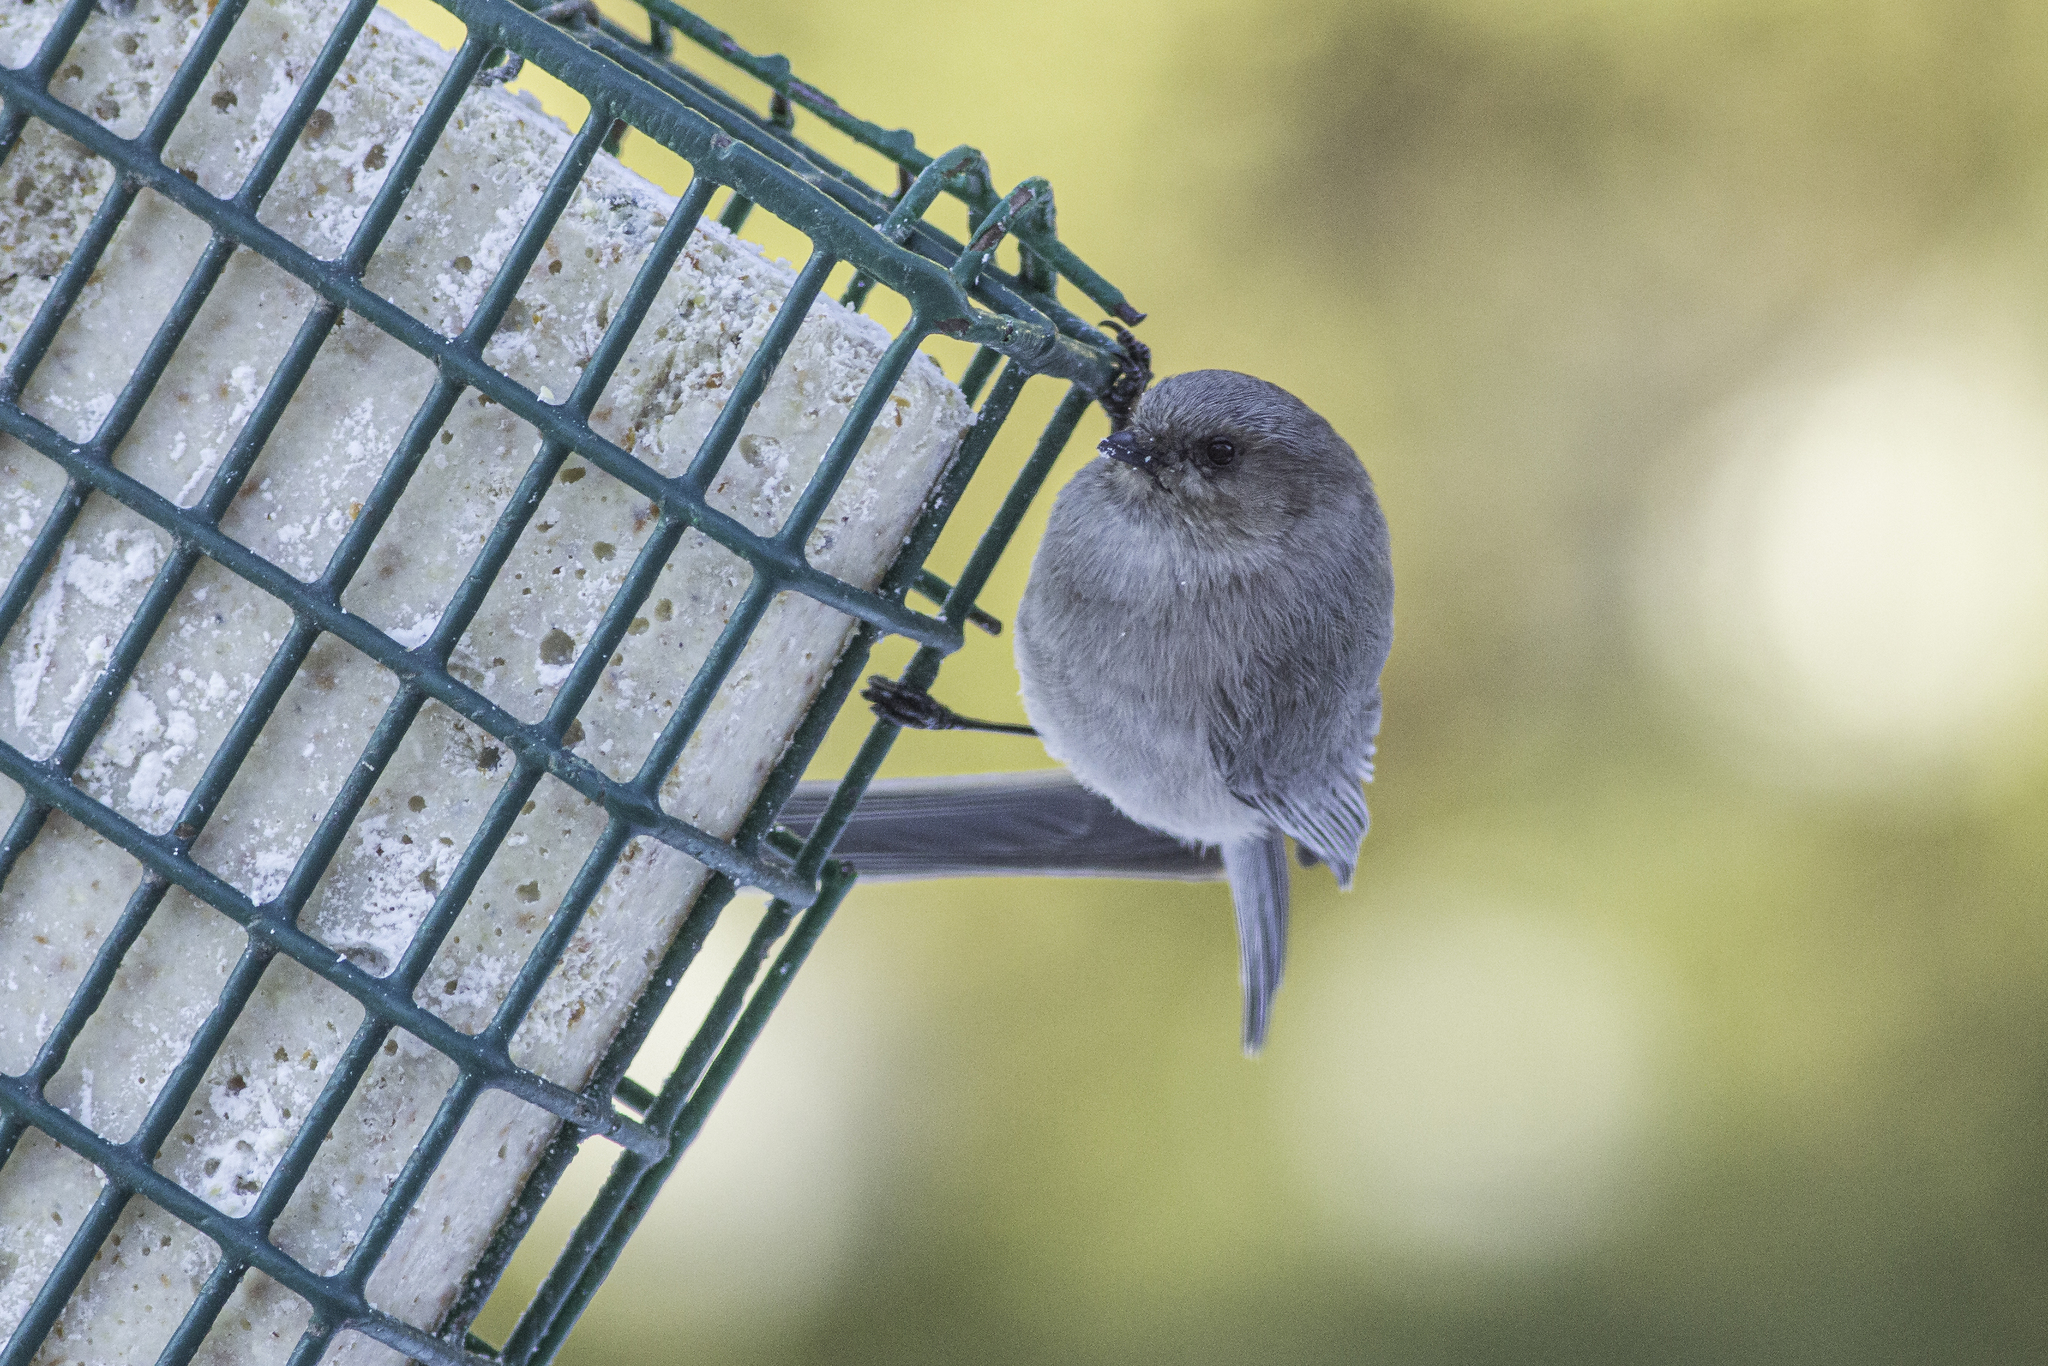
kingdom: Animalia
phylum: Chordata
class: Aves
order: Passeriformes
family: Aegithalidae
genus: Psaltriparus
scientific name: Psaltriparus minimus
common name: American bushtit
